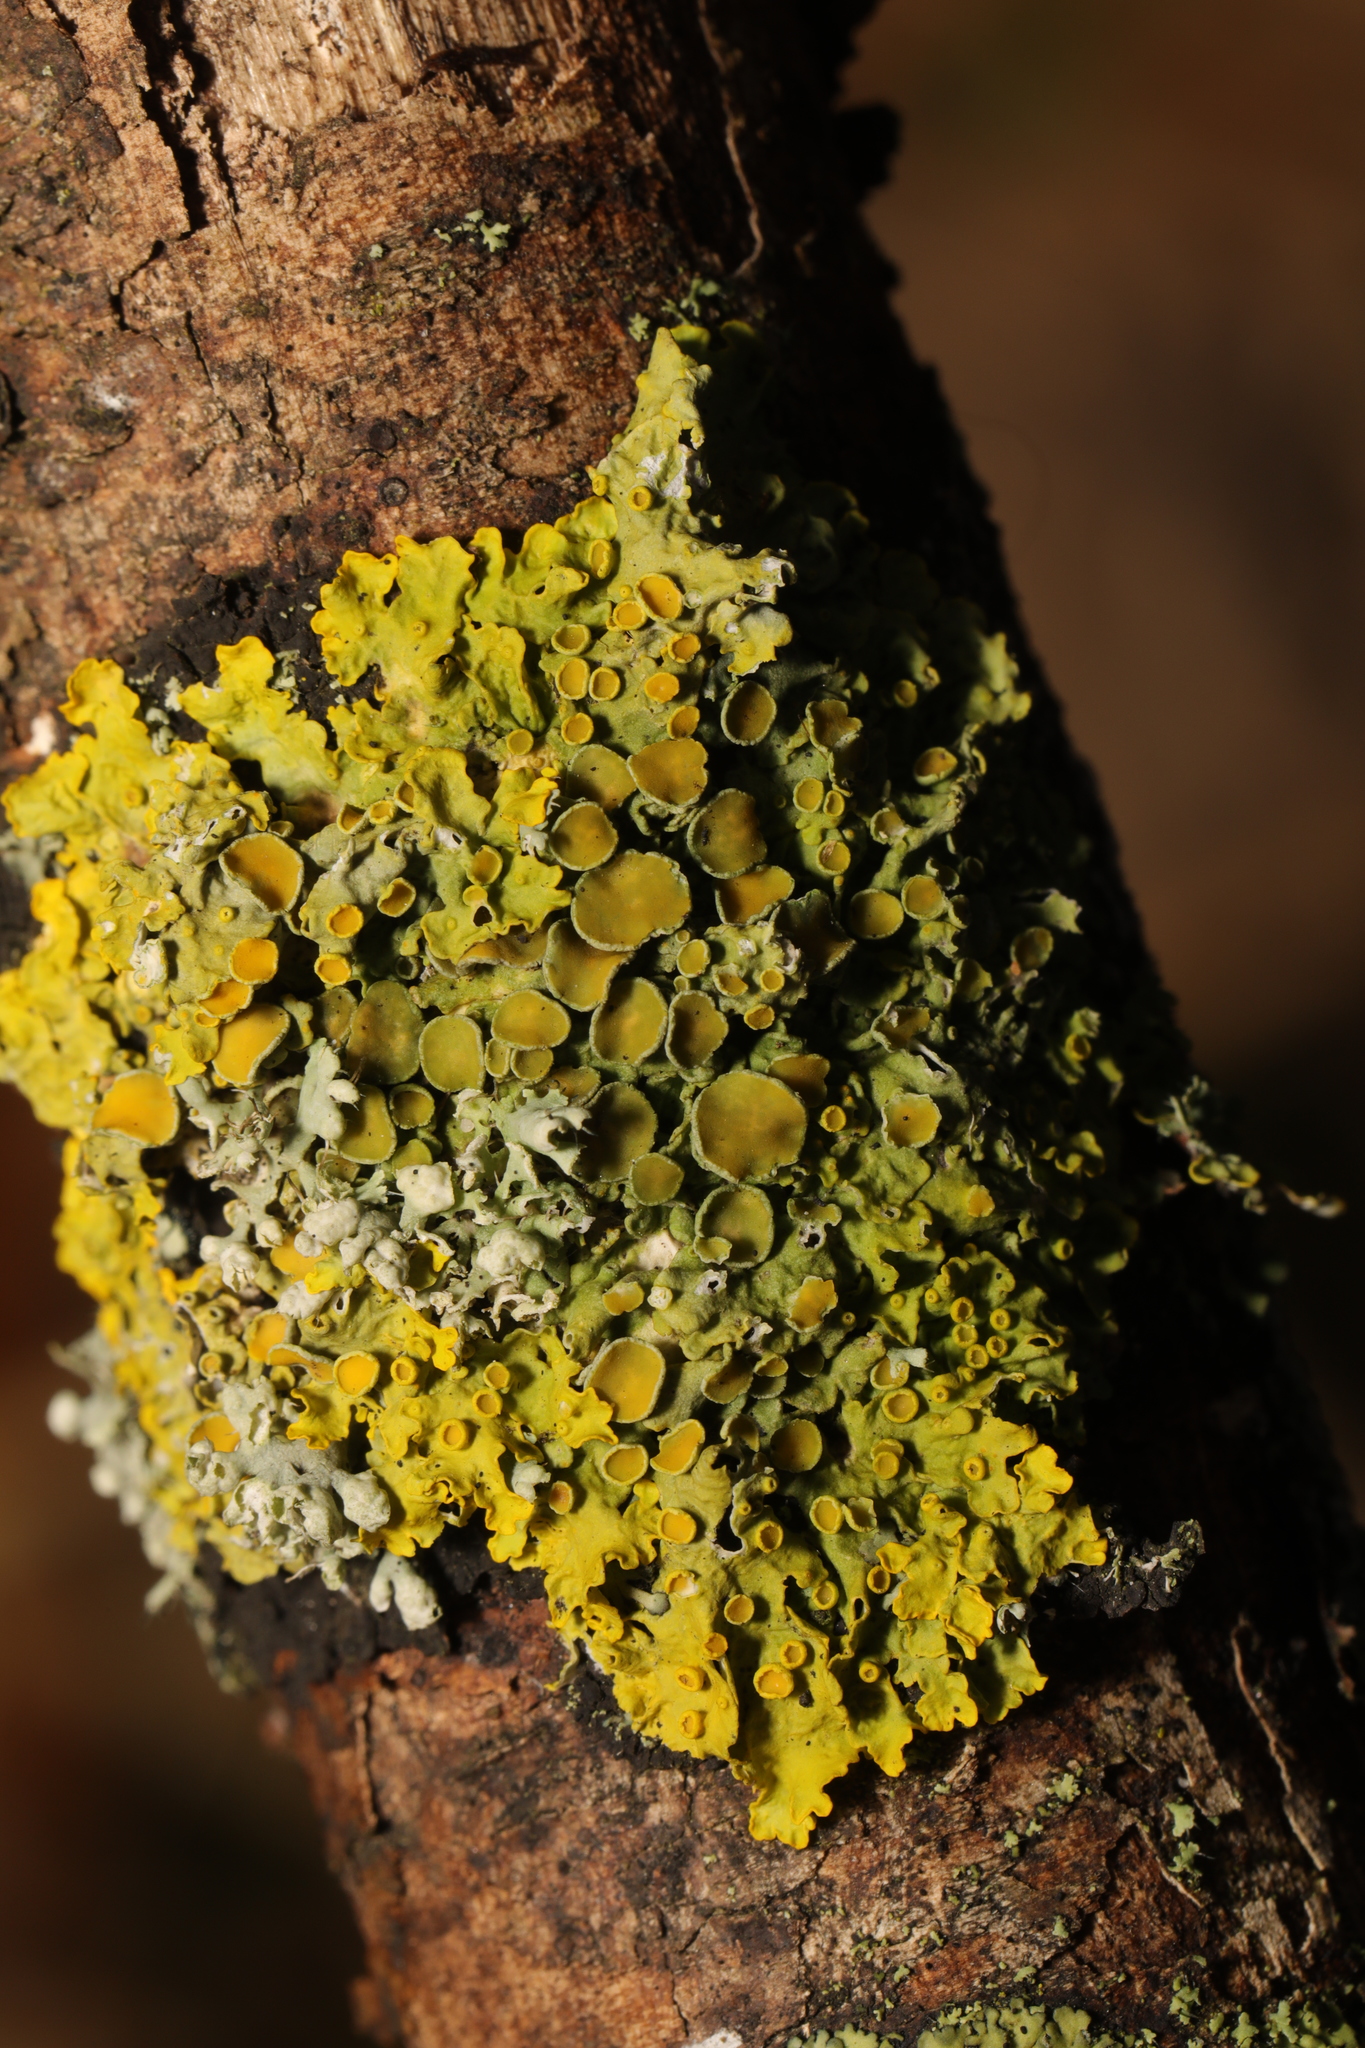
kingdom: Fungi
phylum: Ascomycota
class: Lecanoromycetes
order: Teloschistales
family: Teloschistaceae
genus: Xanthoria
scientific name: Xanthoria parietina
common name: Common orange lichen
